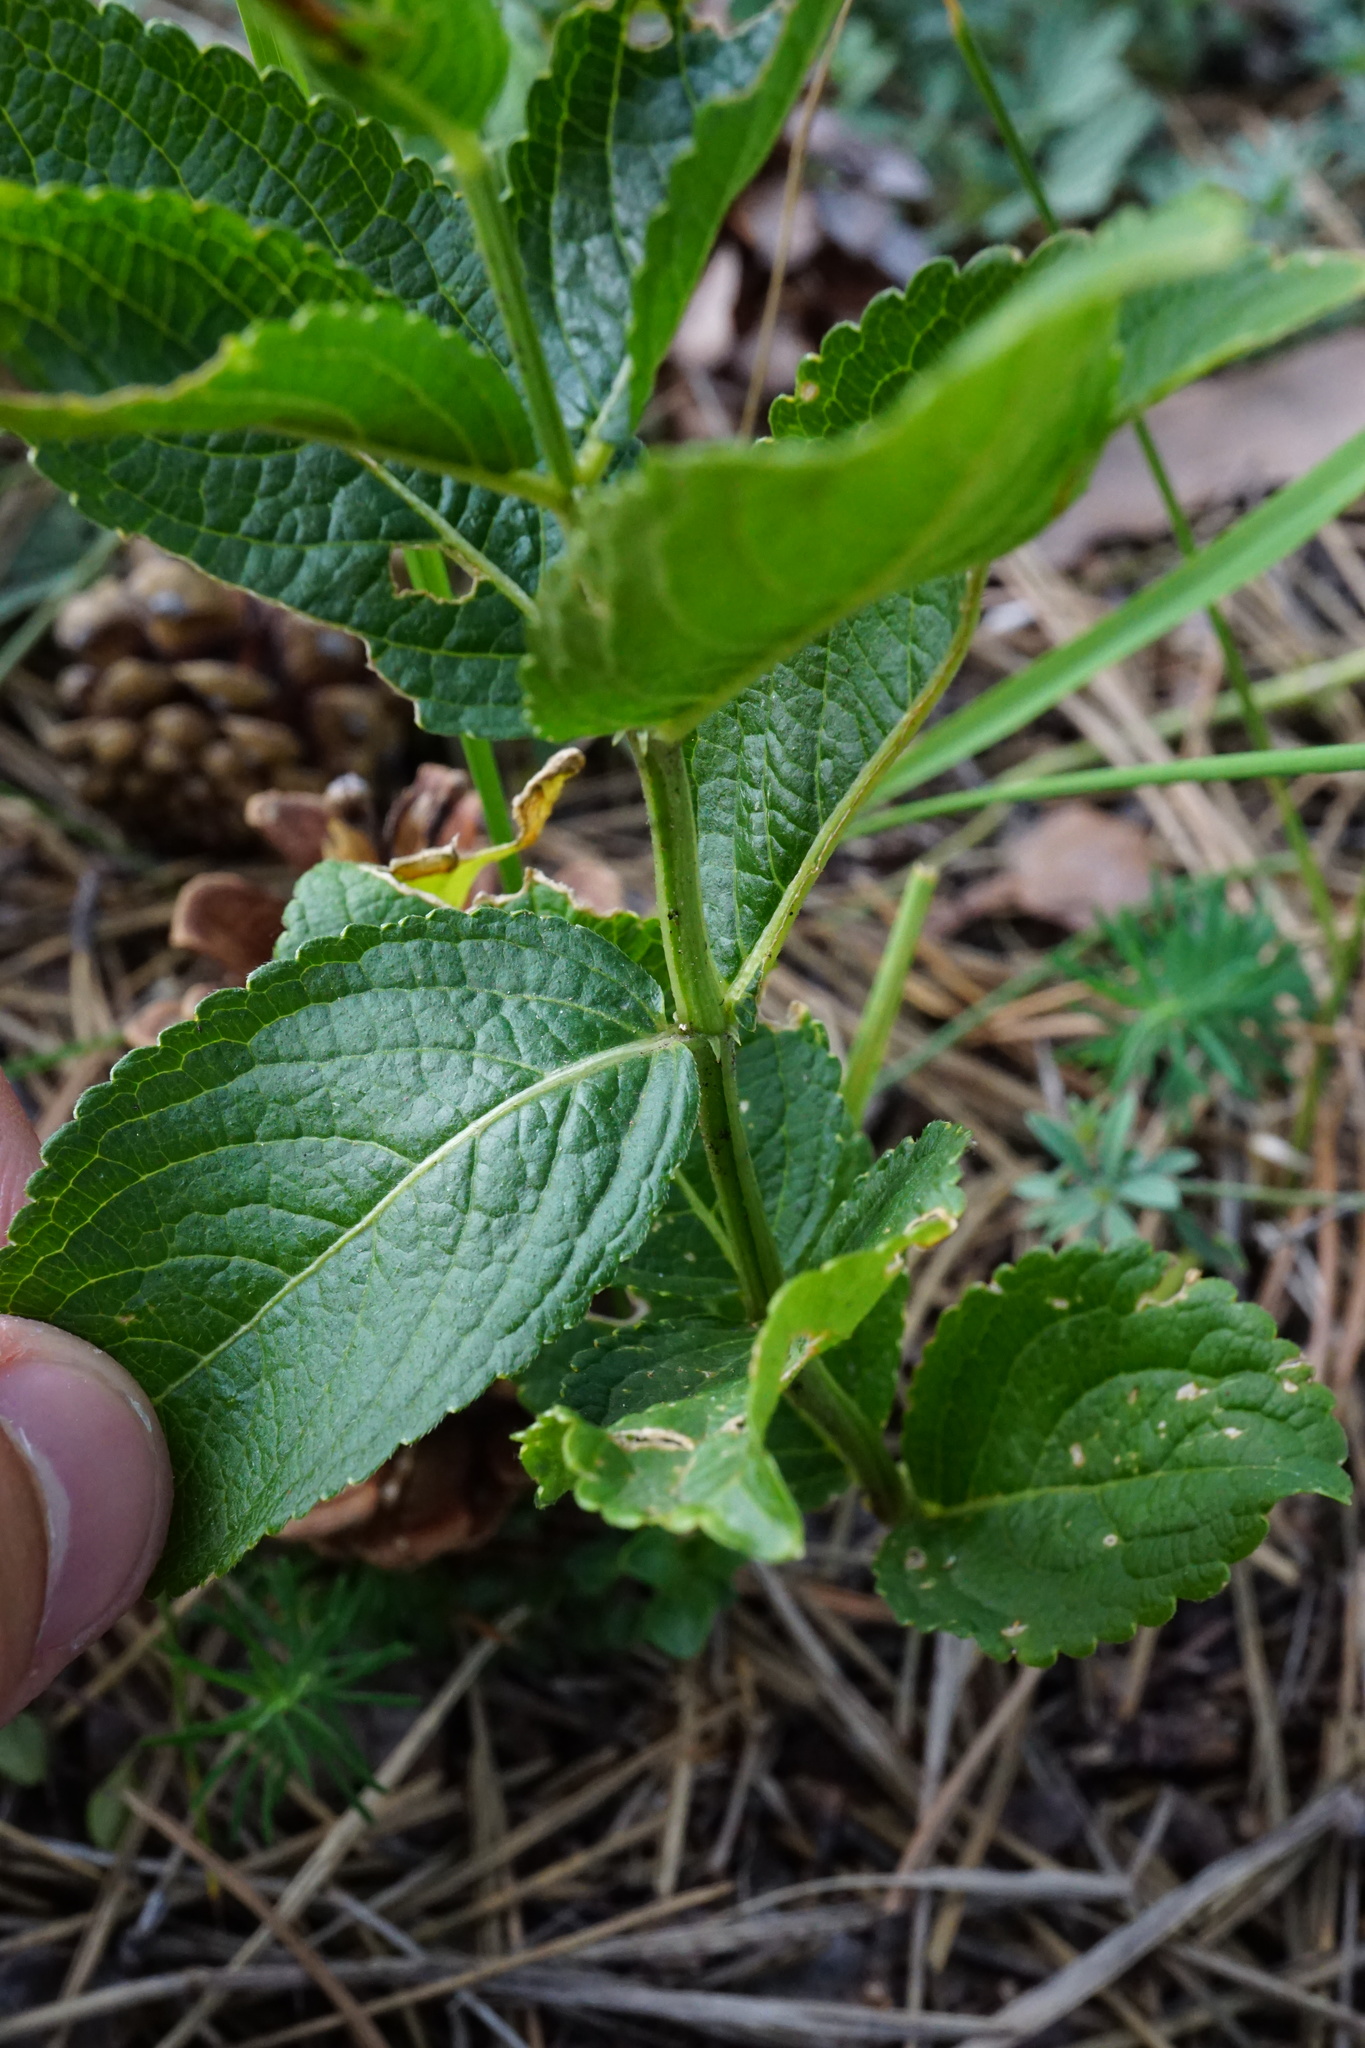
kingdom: Plantae
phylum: Tracheophyta
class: Magnoliopsida
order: Malpighiales
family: Euphorbiaceae
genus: Mercurialis
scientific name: Mercurialis ovata
